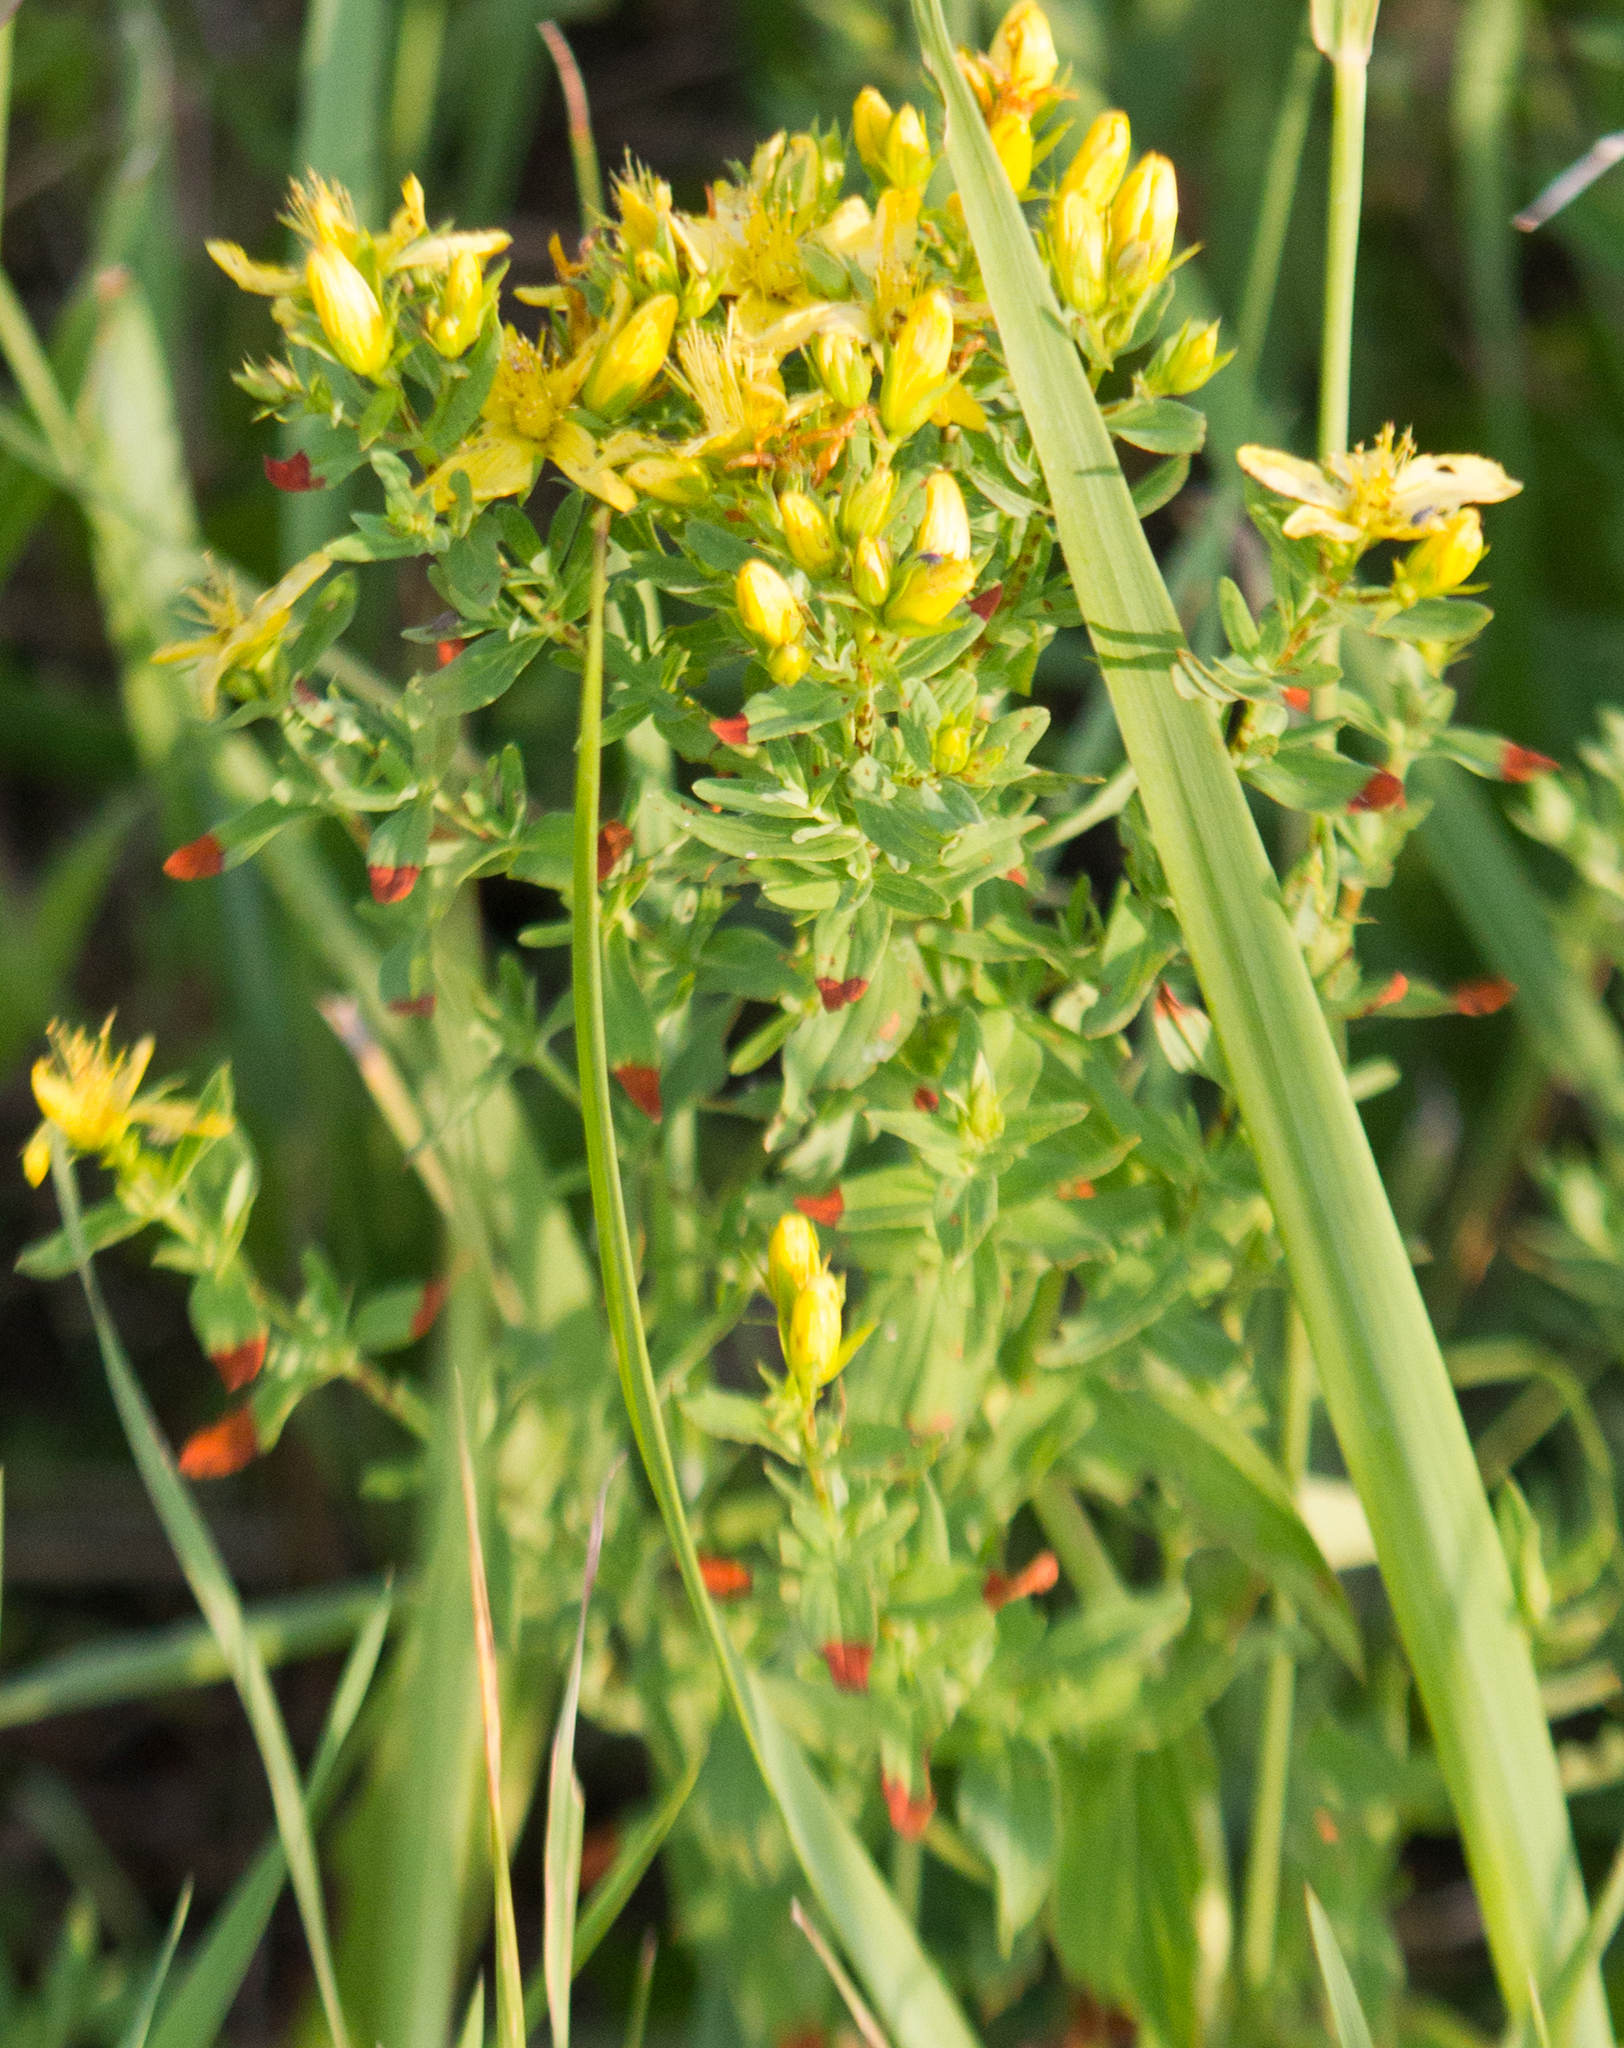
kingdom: Plantae
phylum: Tracheophyta
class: Magnoliopsida
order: Malpighiales
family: Hypericaceae
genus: Hypericum
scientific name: Hypericum perforatum
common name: Common st. johnswort
